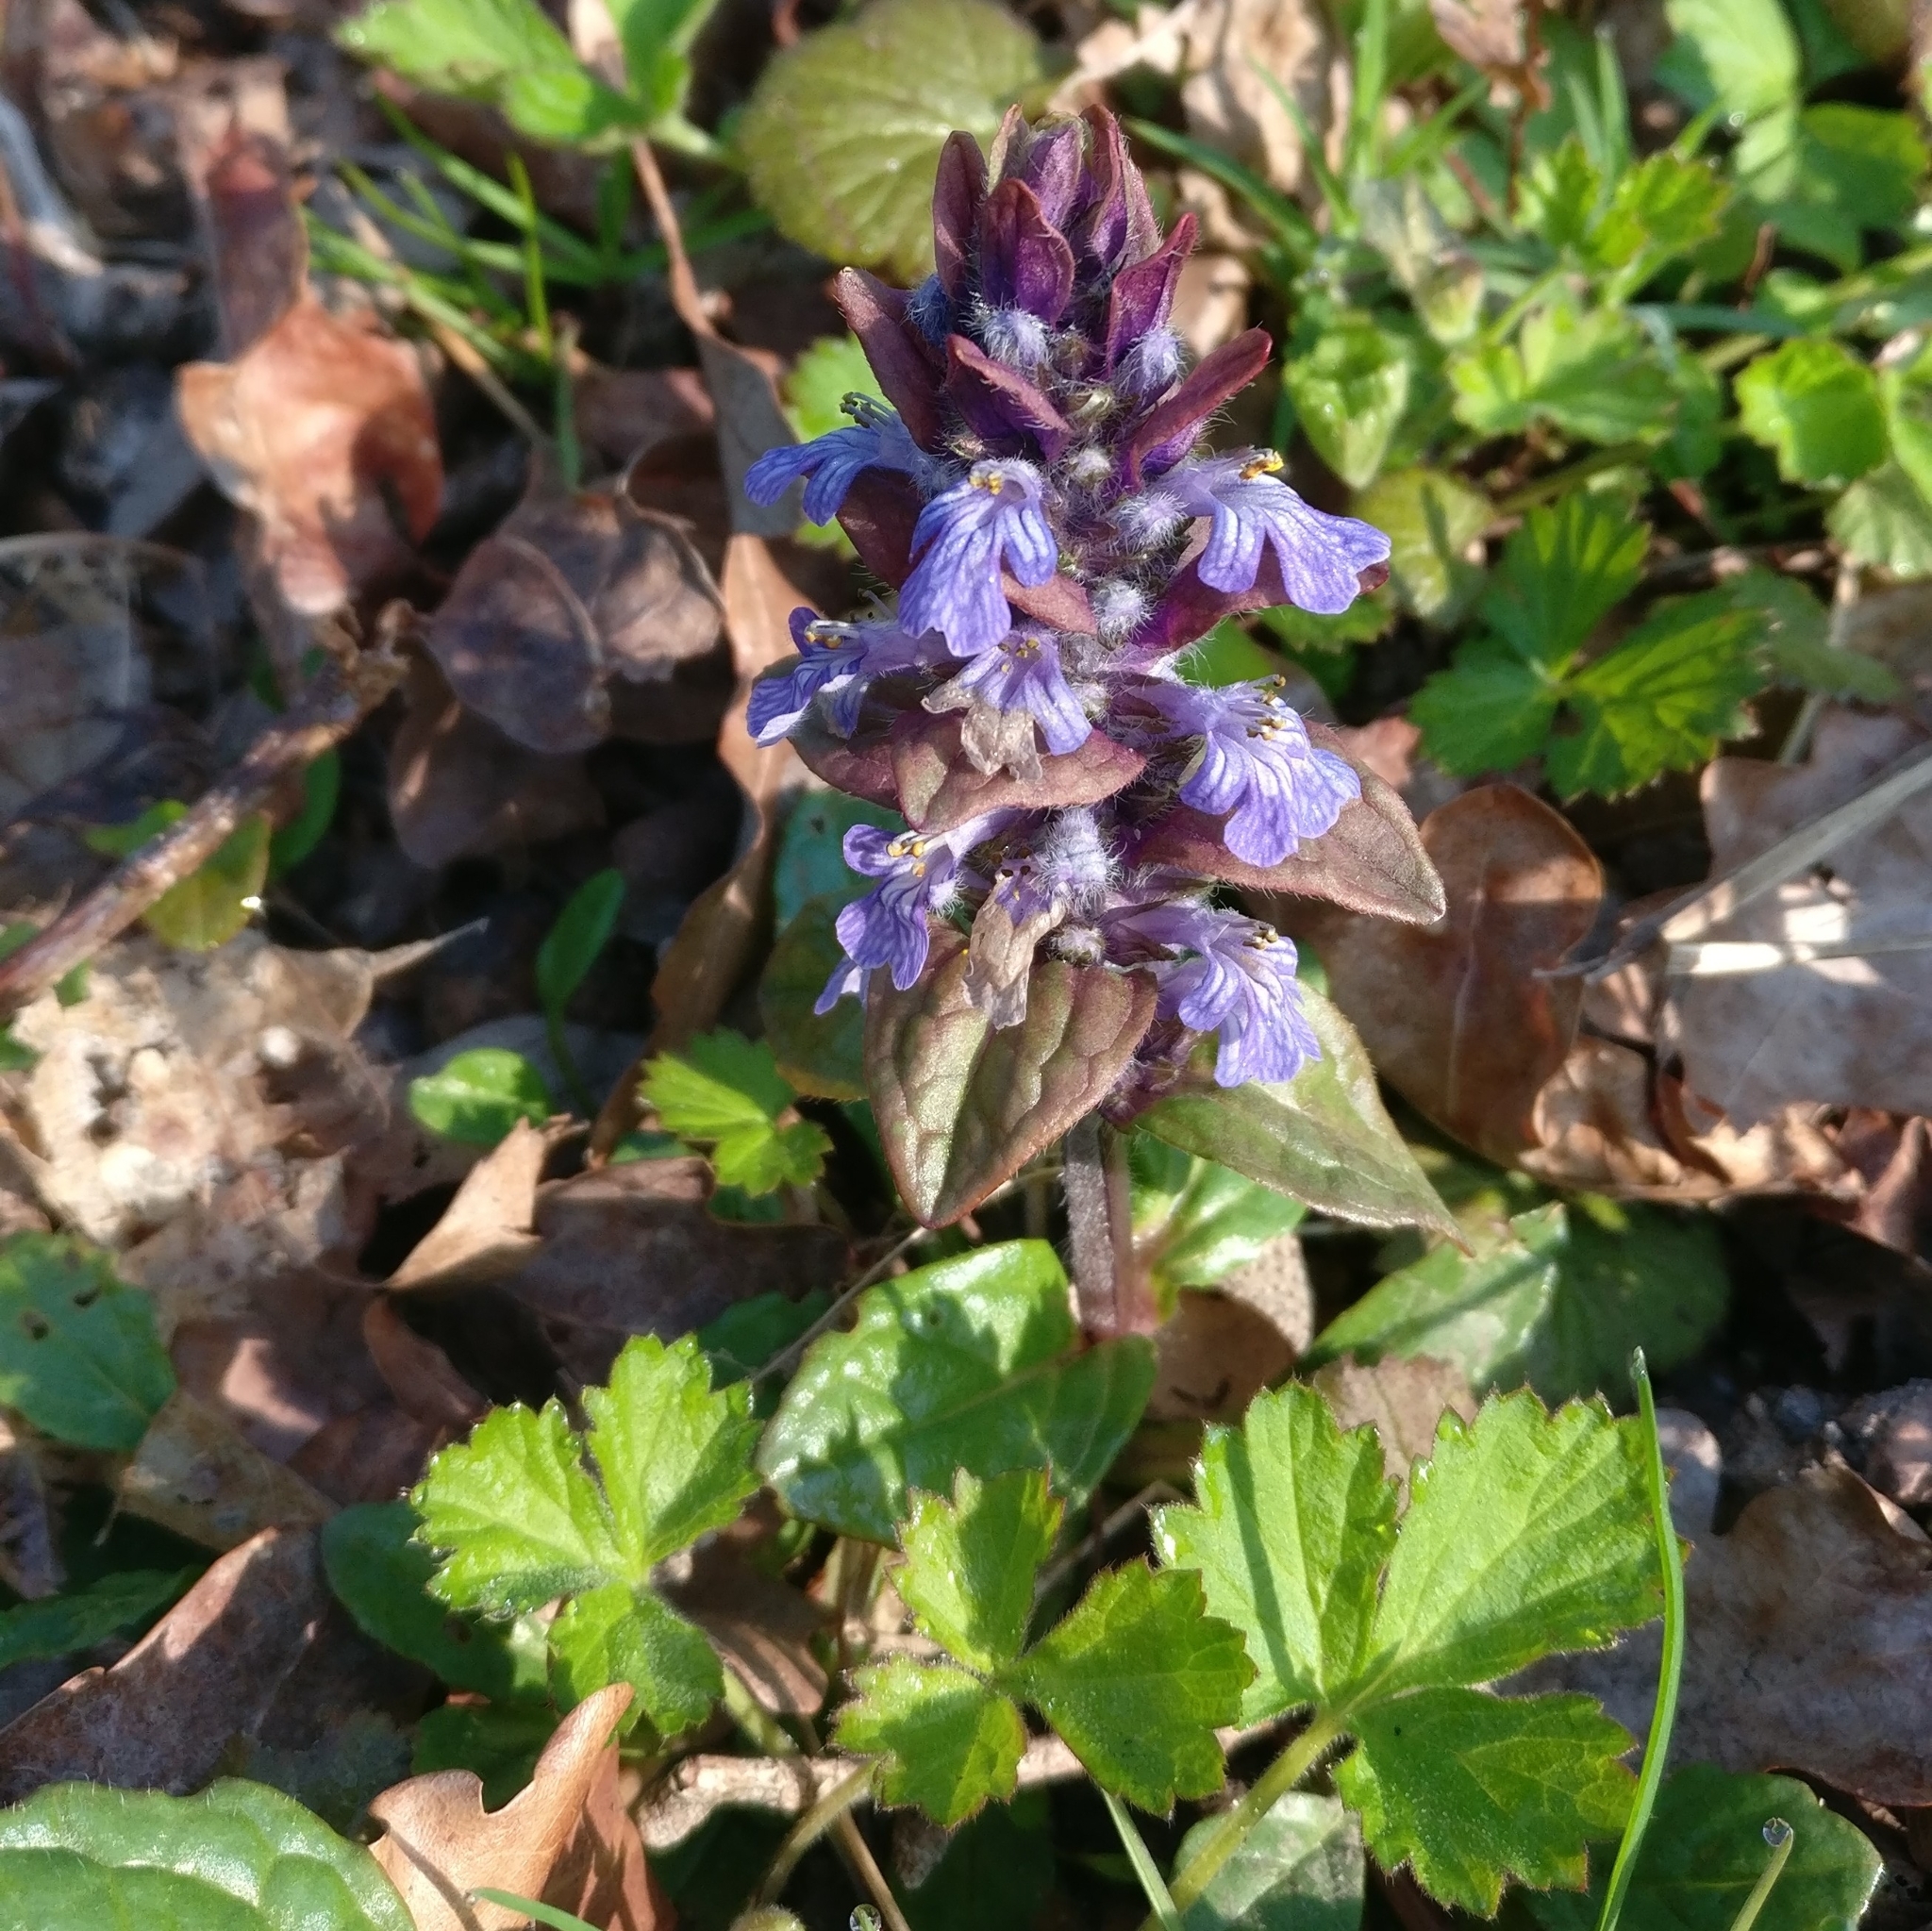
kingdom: Plantae
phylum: Tracheophyta
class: Magnoliopsida
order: Lamiales
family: Lamiaceae
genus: Ajuga
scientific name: Ajuga reptans
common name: Bugle
